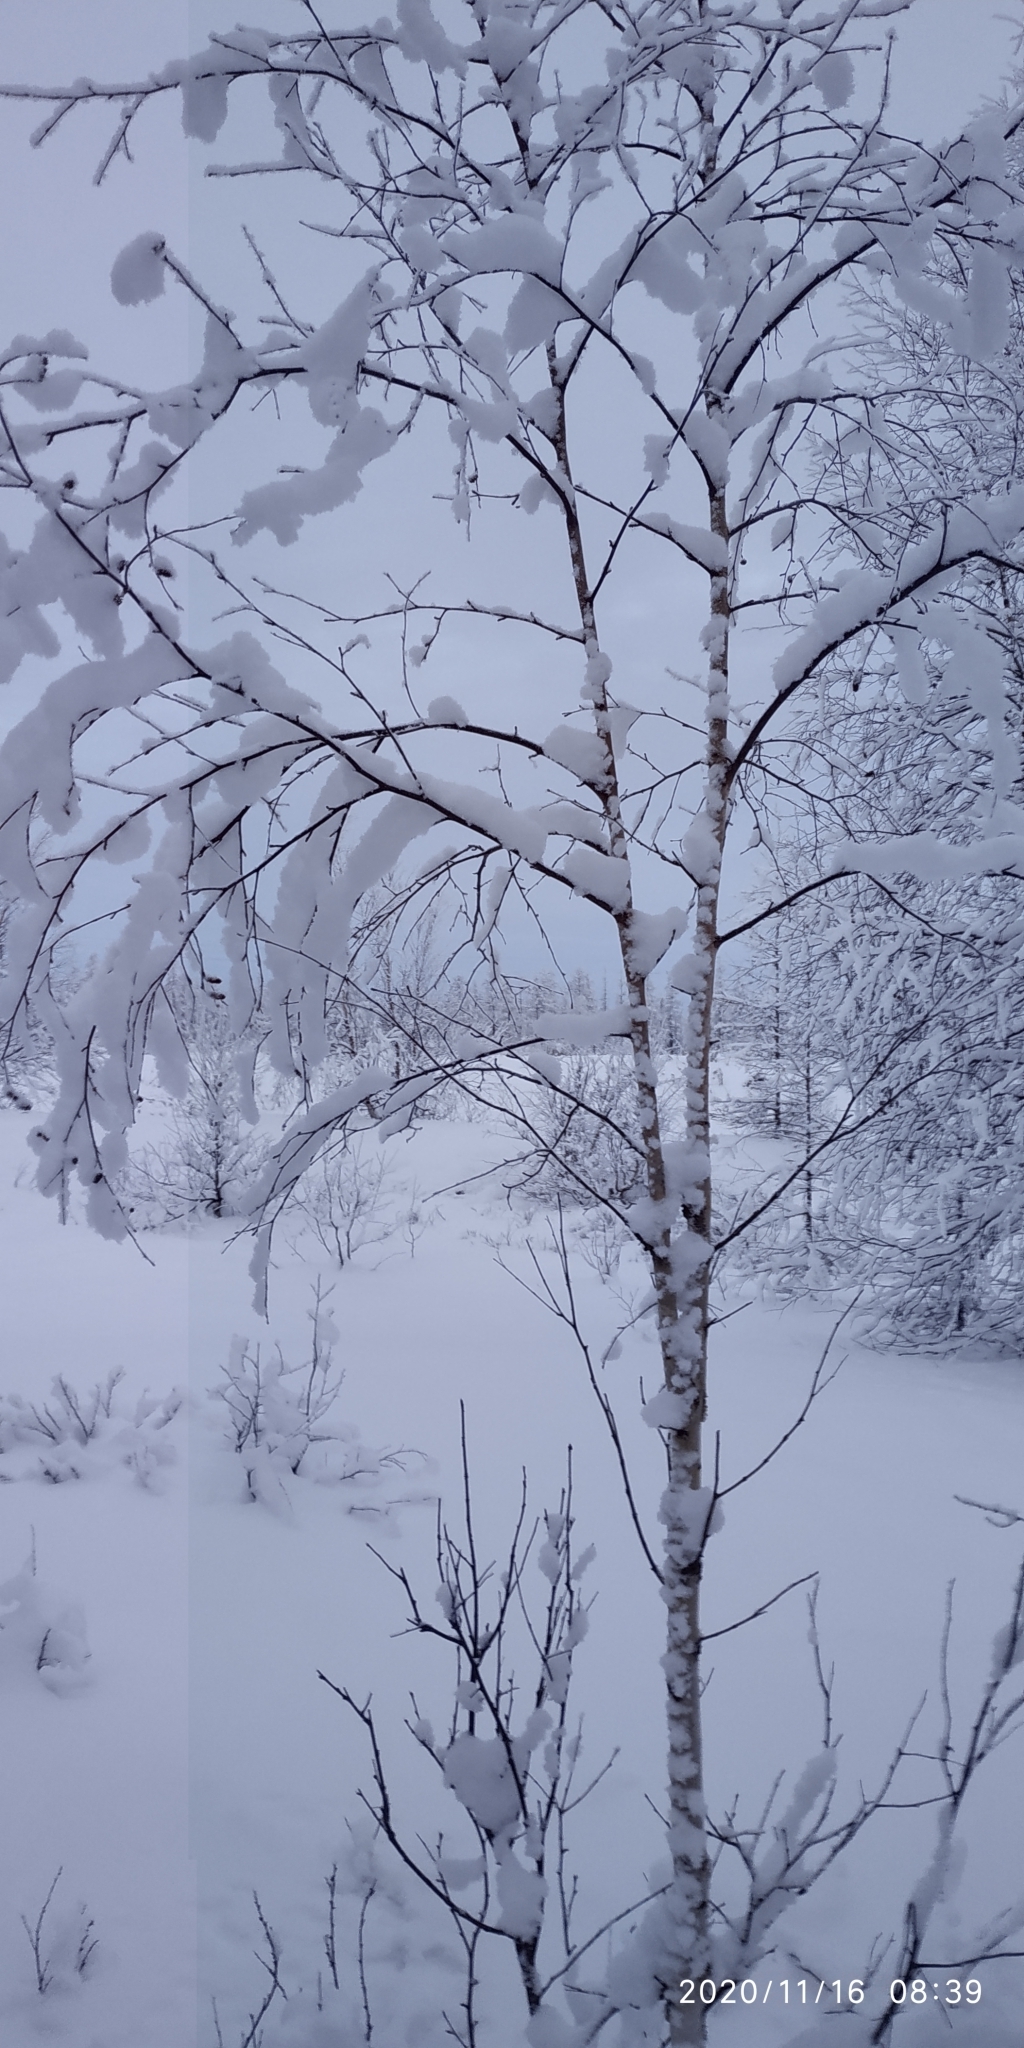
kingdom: Plantae
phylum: Tracheophyta
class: Magnoliopsida
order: Fagales
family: Betulaceae
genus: Betula
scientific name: Betula pubescens
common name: Downy birch
